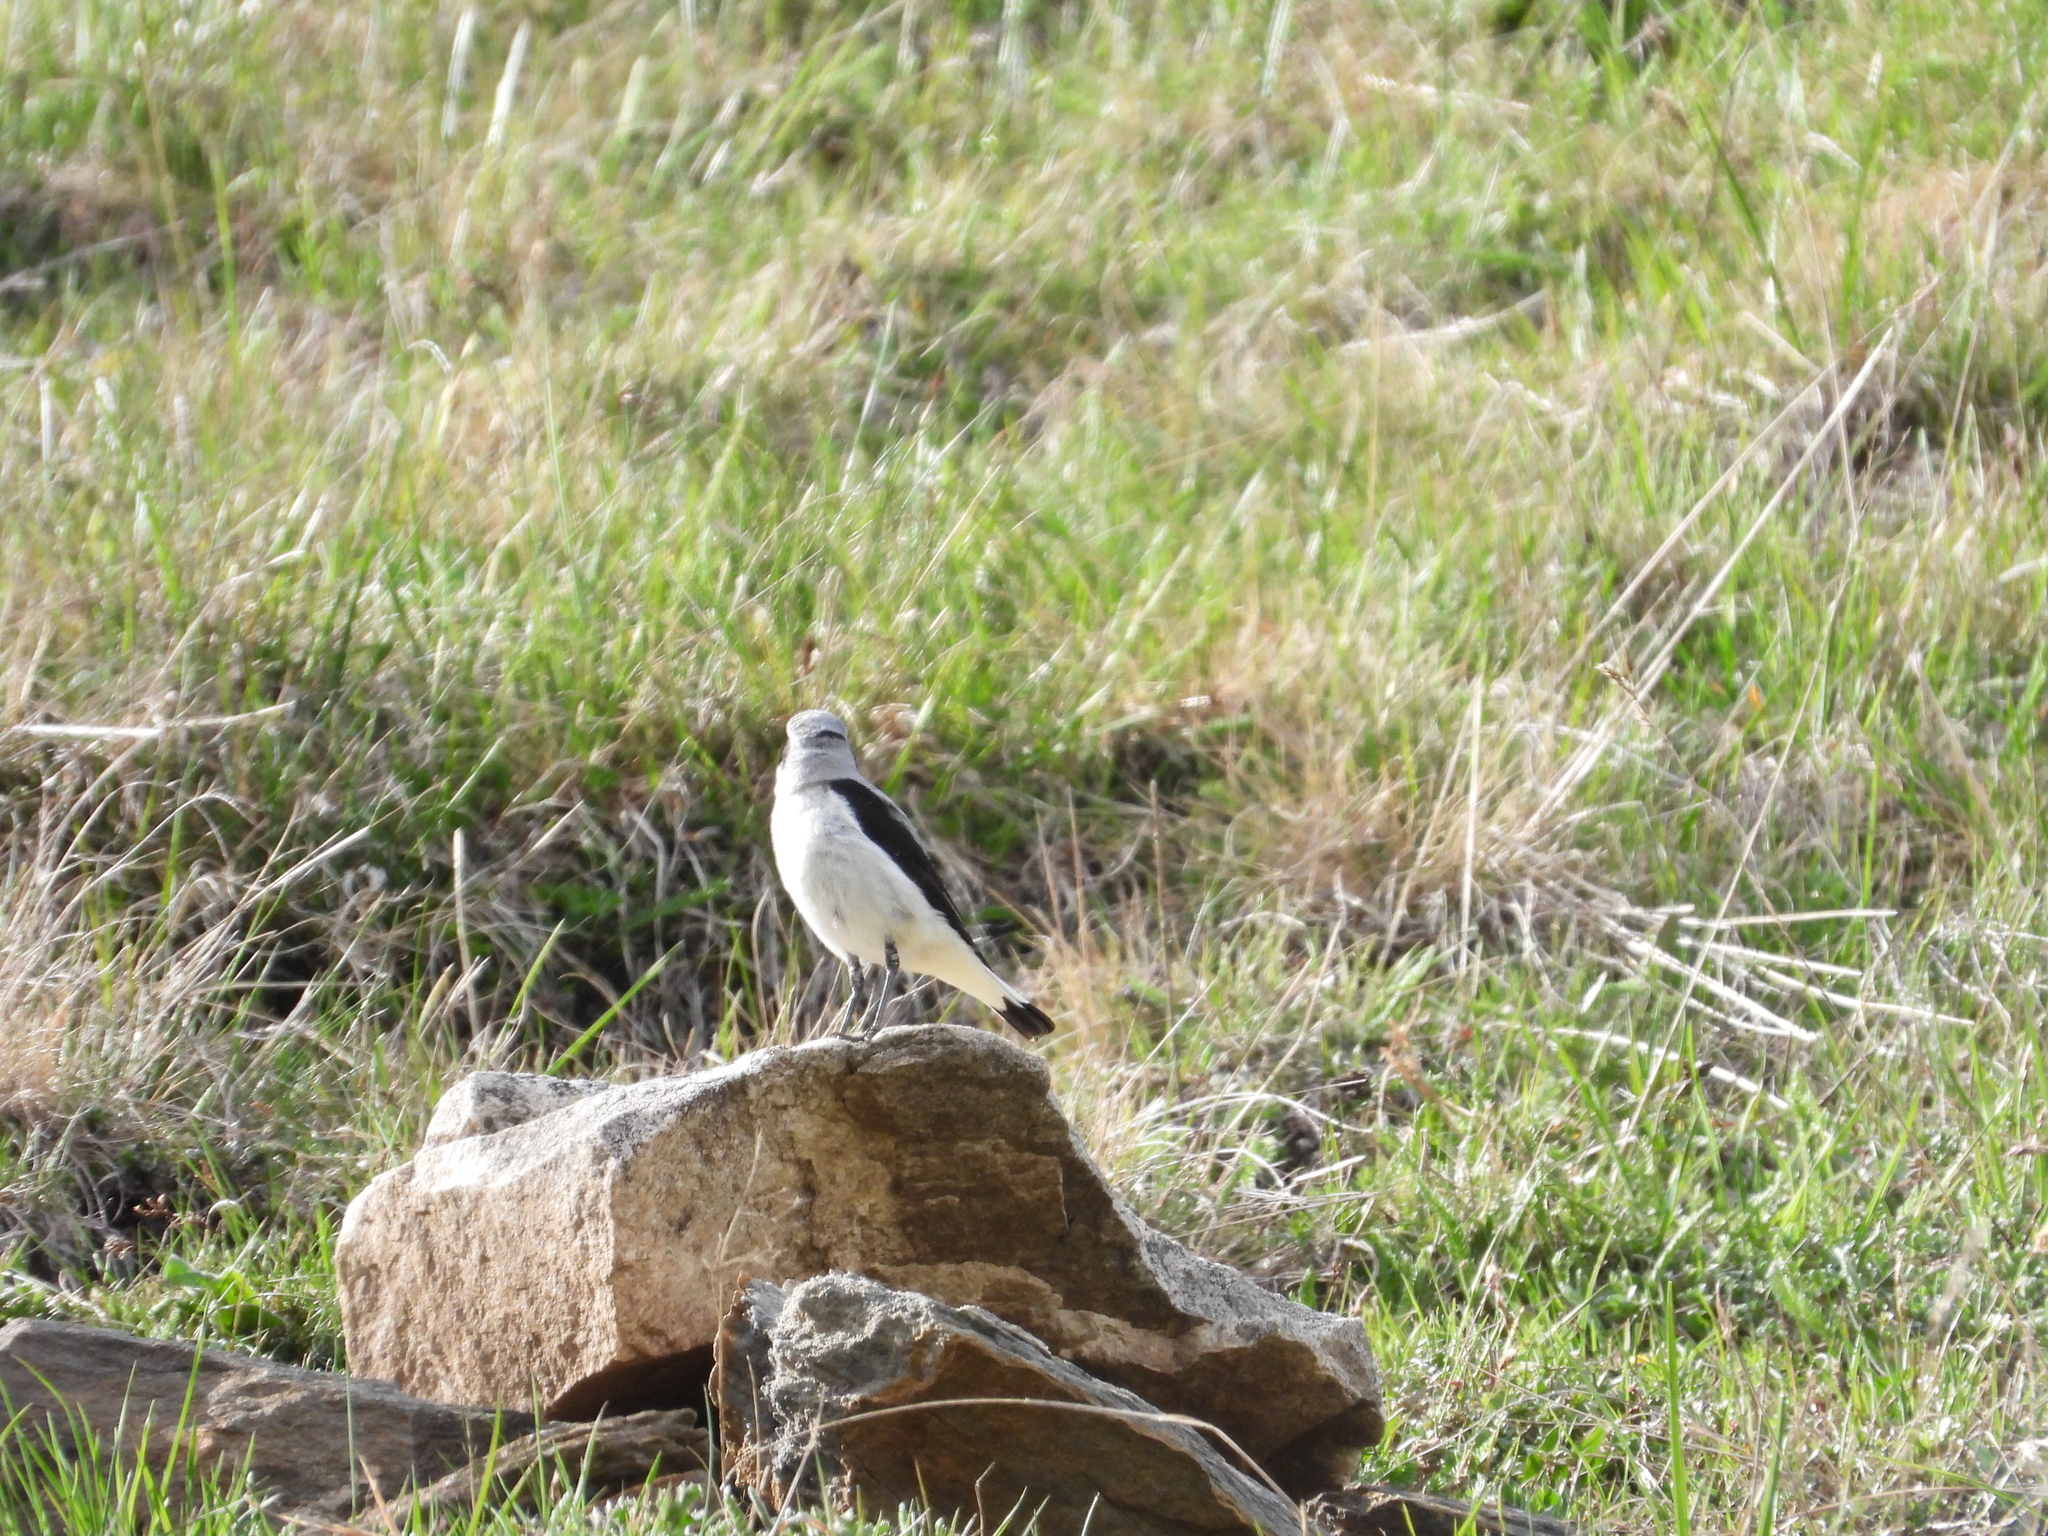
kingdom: Animalia
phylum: Chordata
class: Aves
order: Passeriformes
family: Muscicapidae
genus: Oenanthe
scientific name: Oenanthe oenanthe
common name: Northern wheatear
